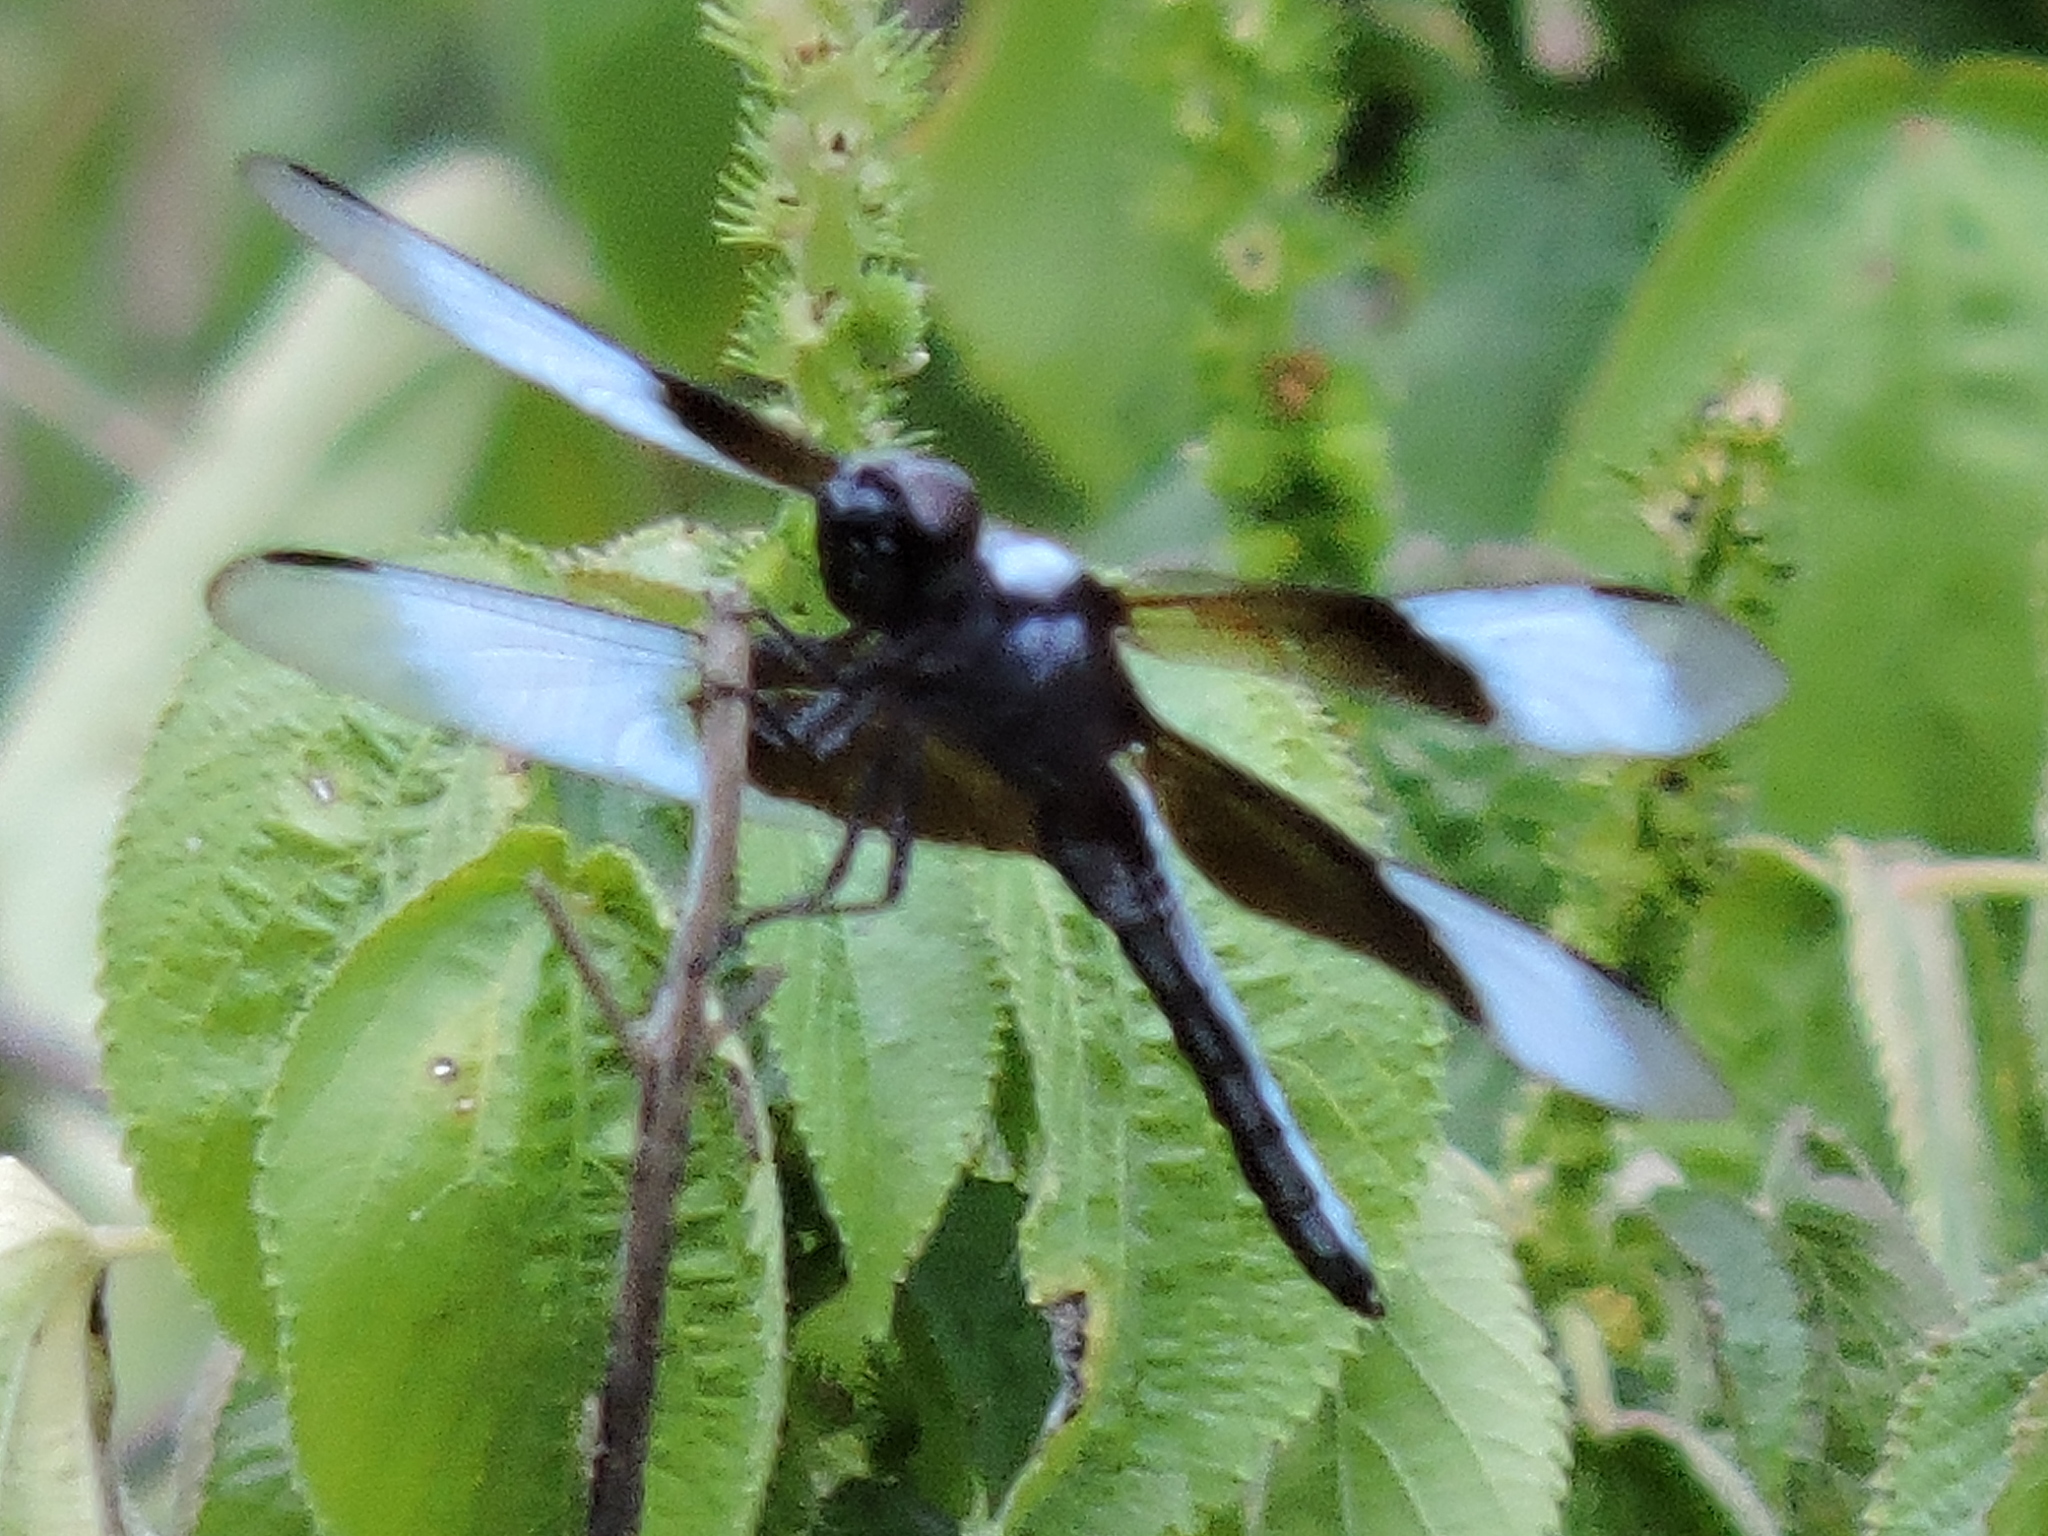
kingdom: Animalia
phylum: Arthropoda
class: Insecta
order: Odonata
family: Libellulidae
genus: Libellula
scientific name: Libellula luctuosa
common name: Widow skimmer
